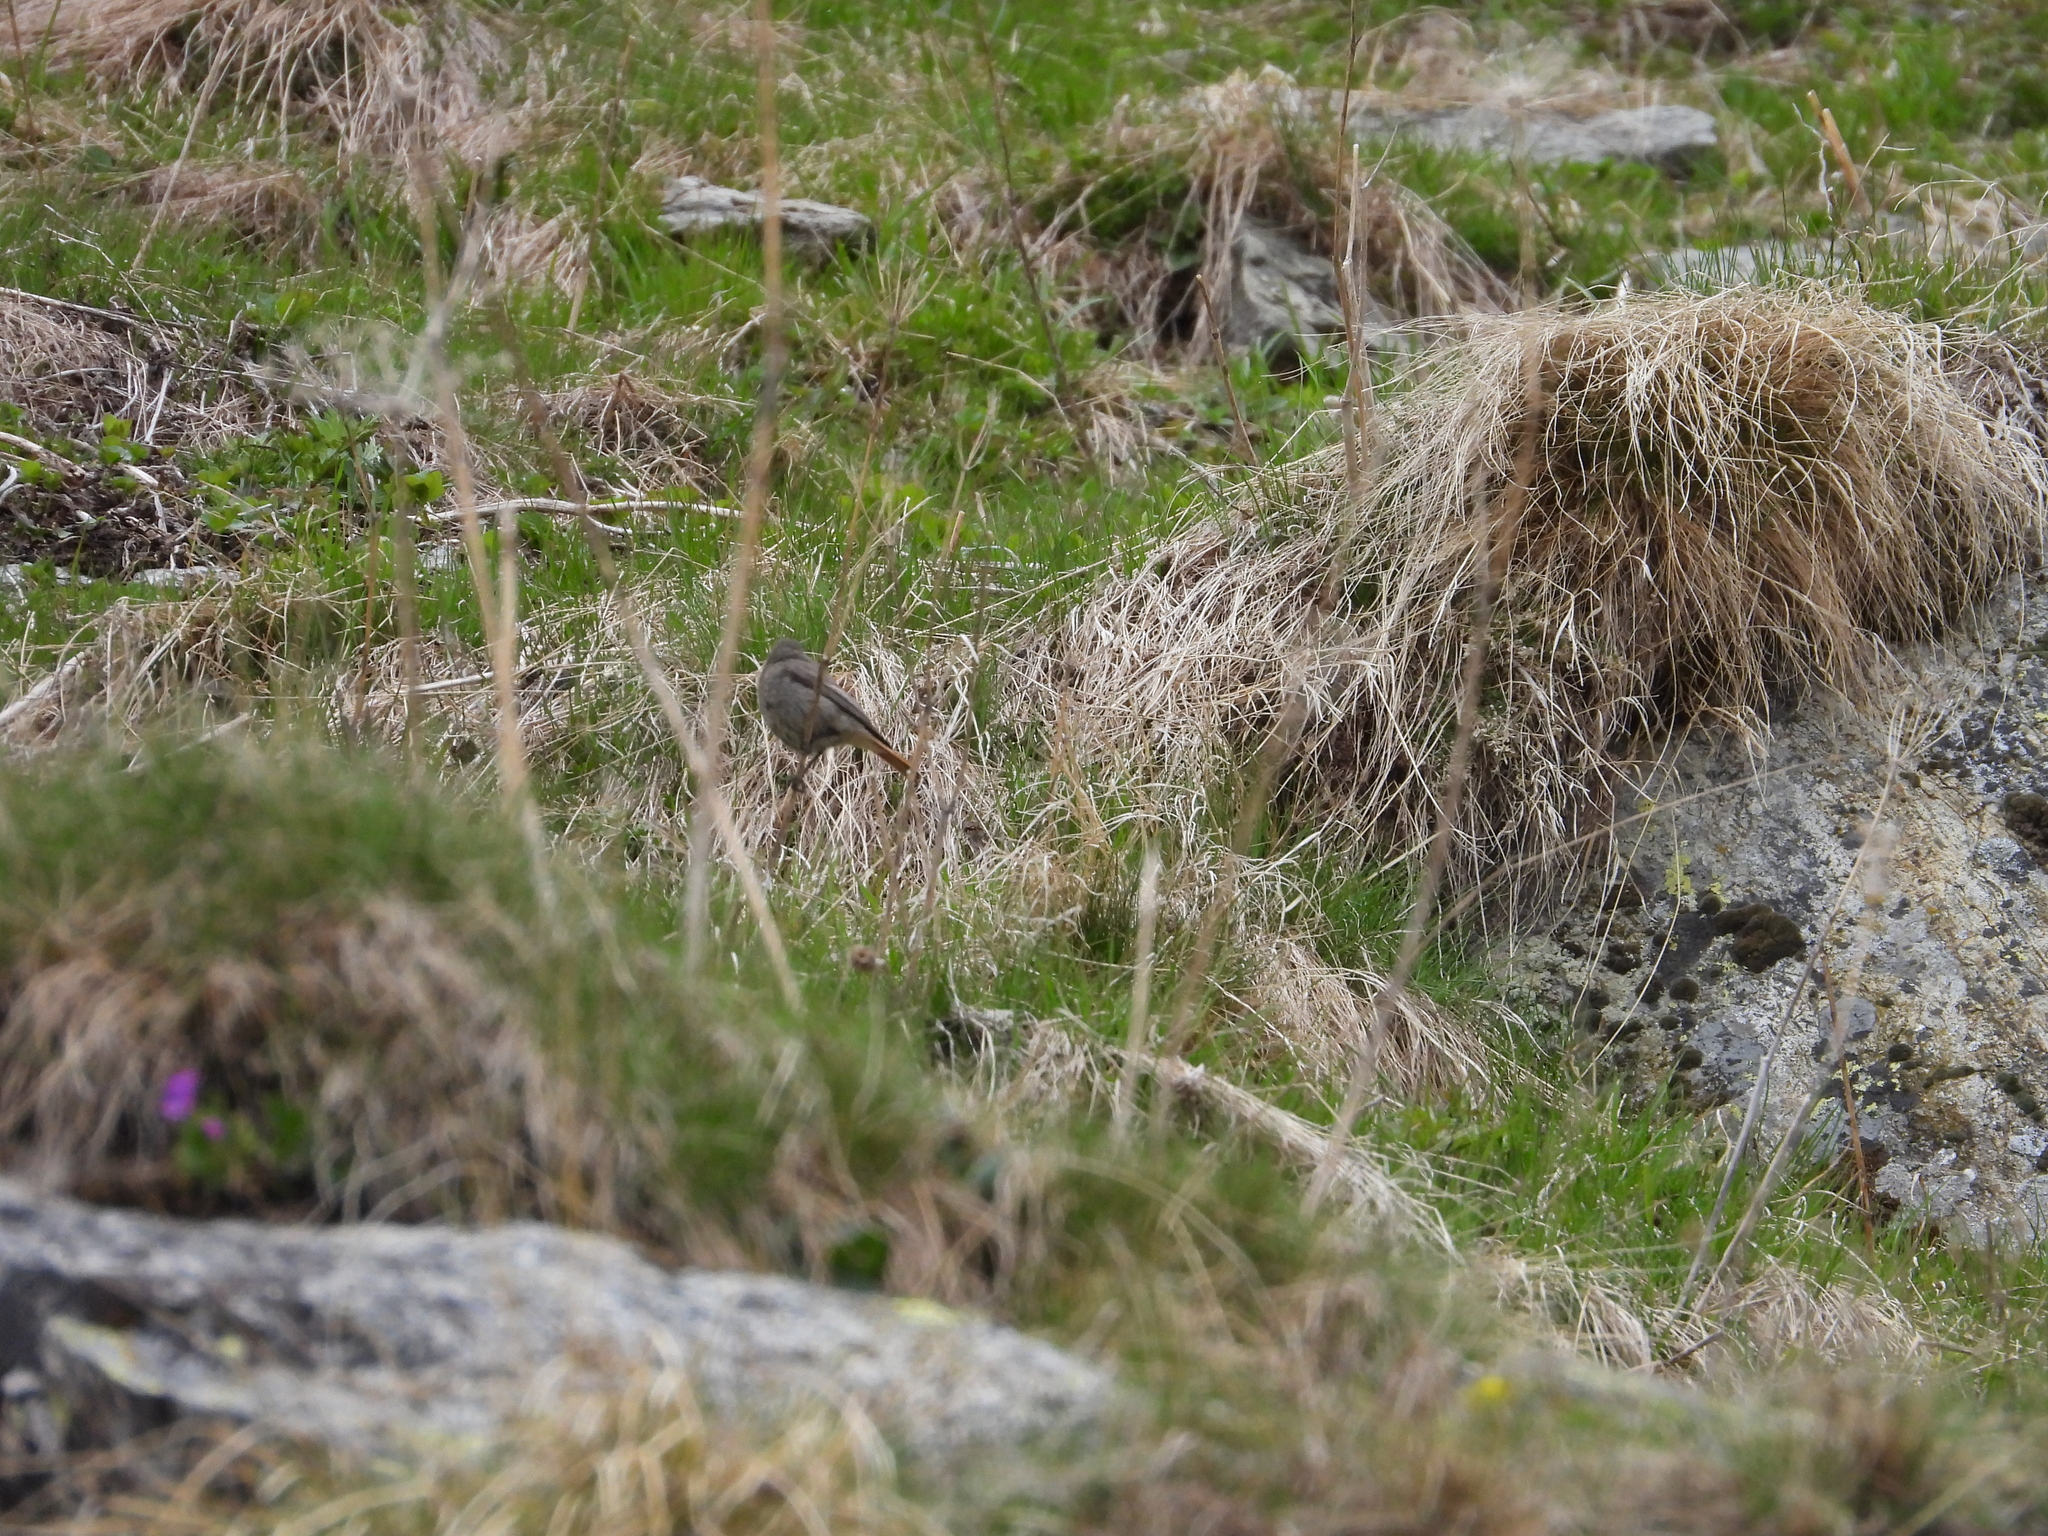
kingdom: Animalia
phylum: Chordata
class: Aves
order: Passeriformes
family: Muscicapidae
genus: Phoenicurus
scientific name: Phoenicurus ochruros
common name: Black redstart
